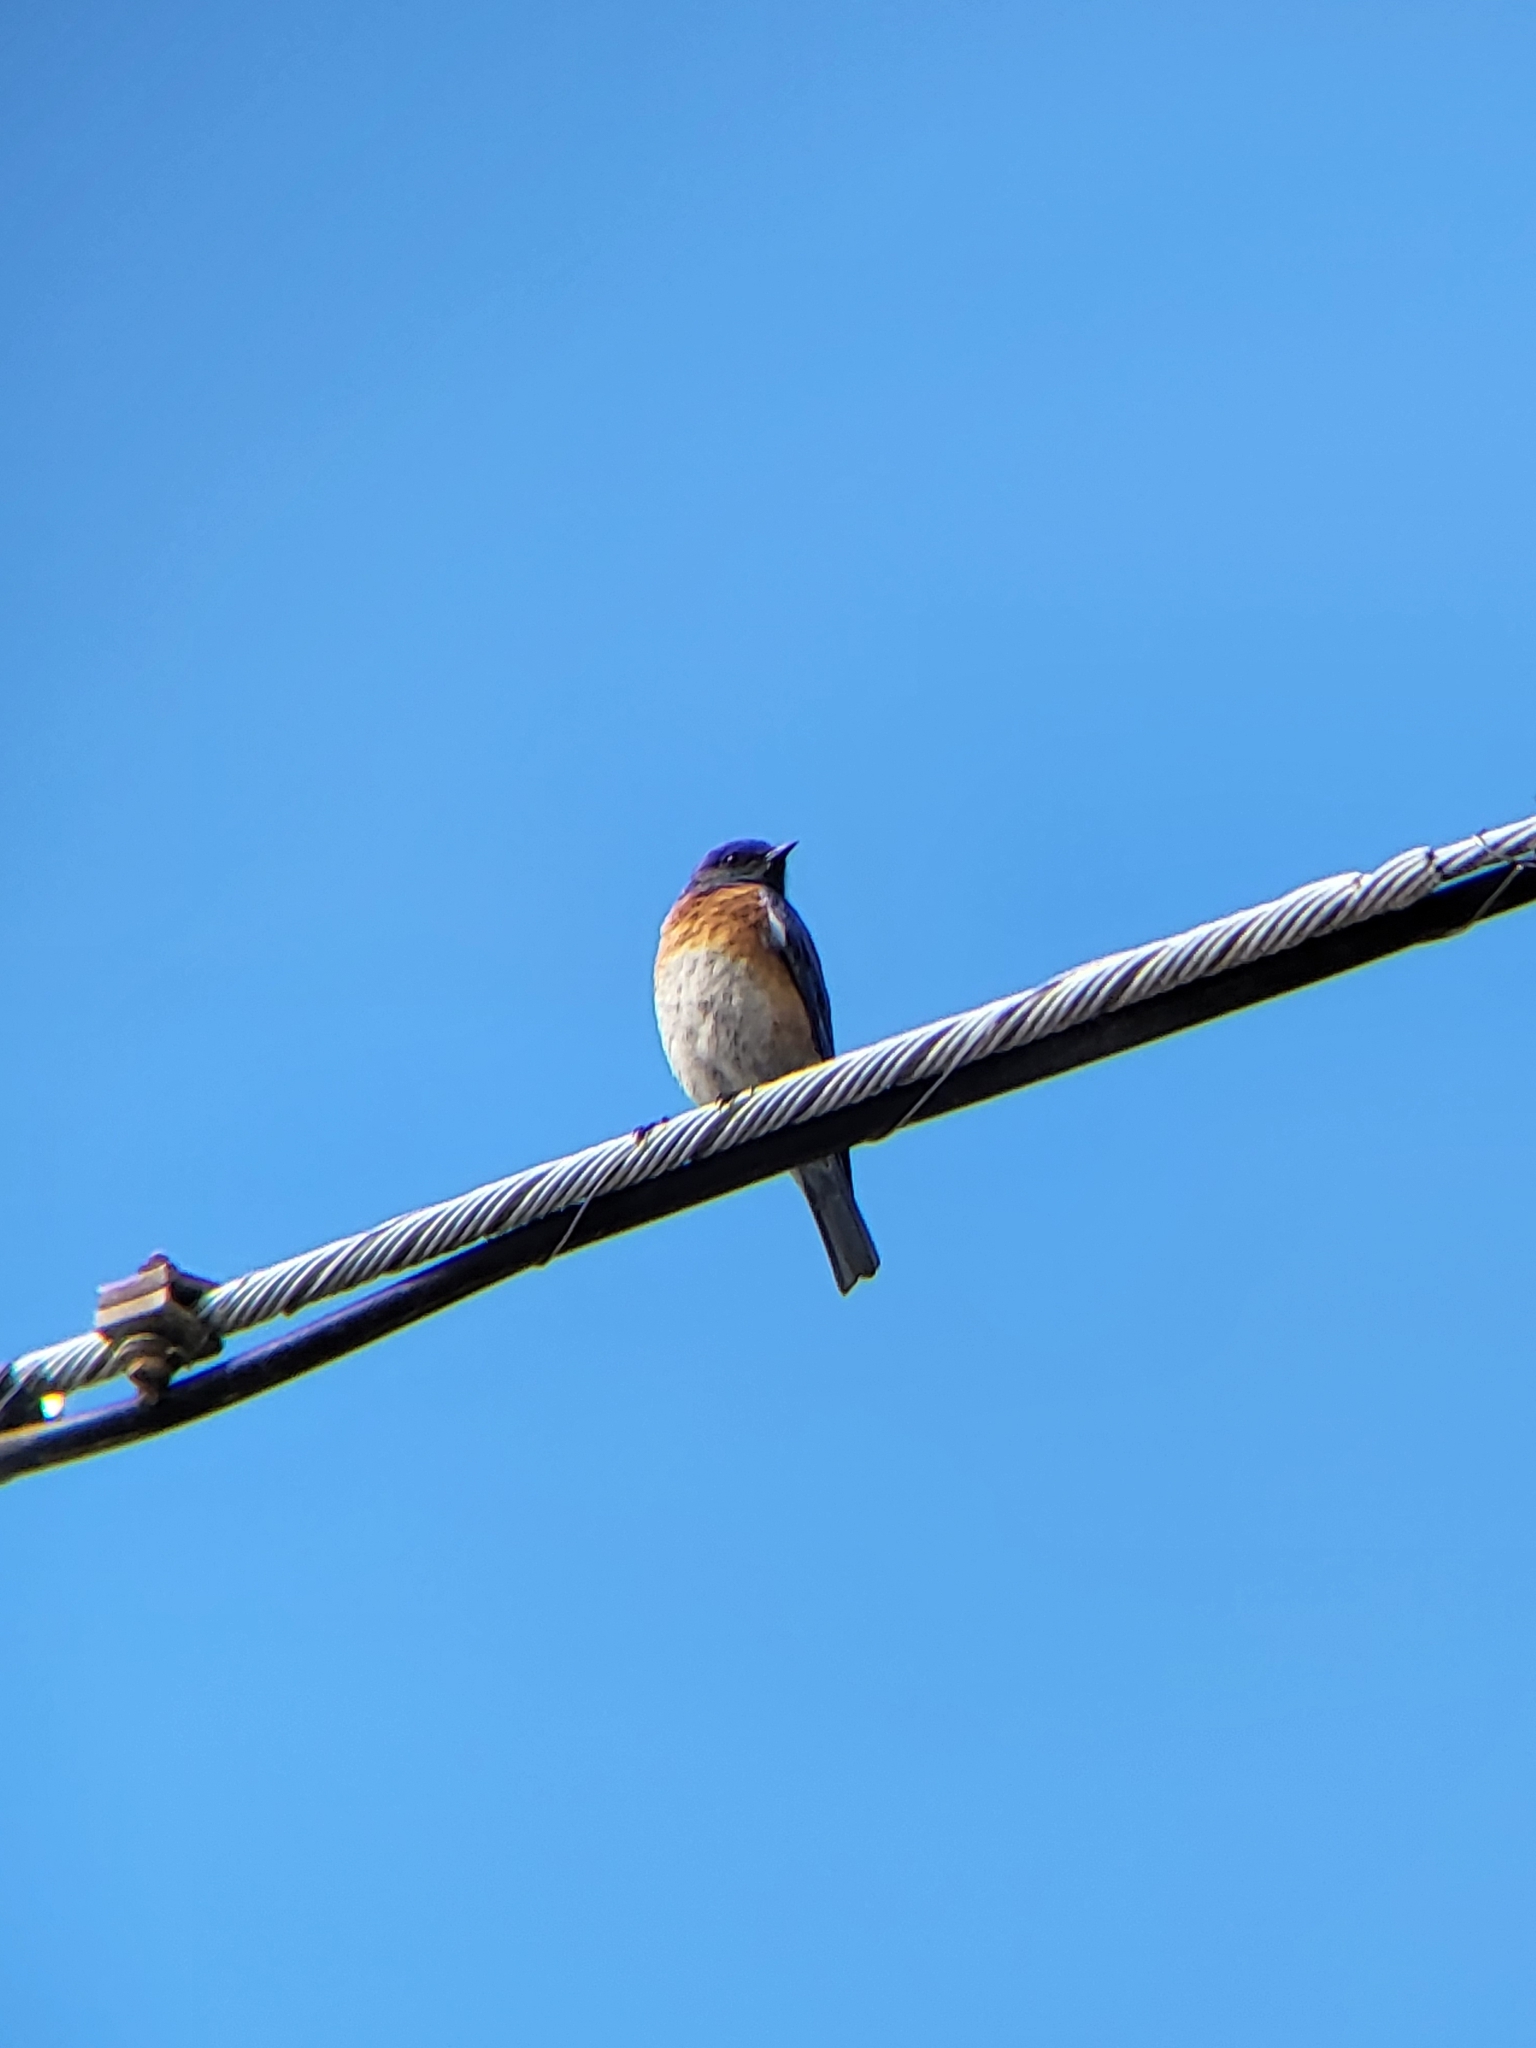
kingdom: Animalia
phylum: Chordata
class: Aves
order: Passeriformes
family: Turdidae
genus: Sialia
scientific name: Sialia mexicana
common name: Western bluebird
